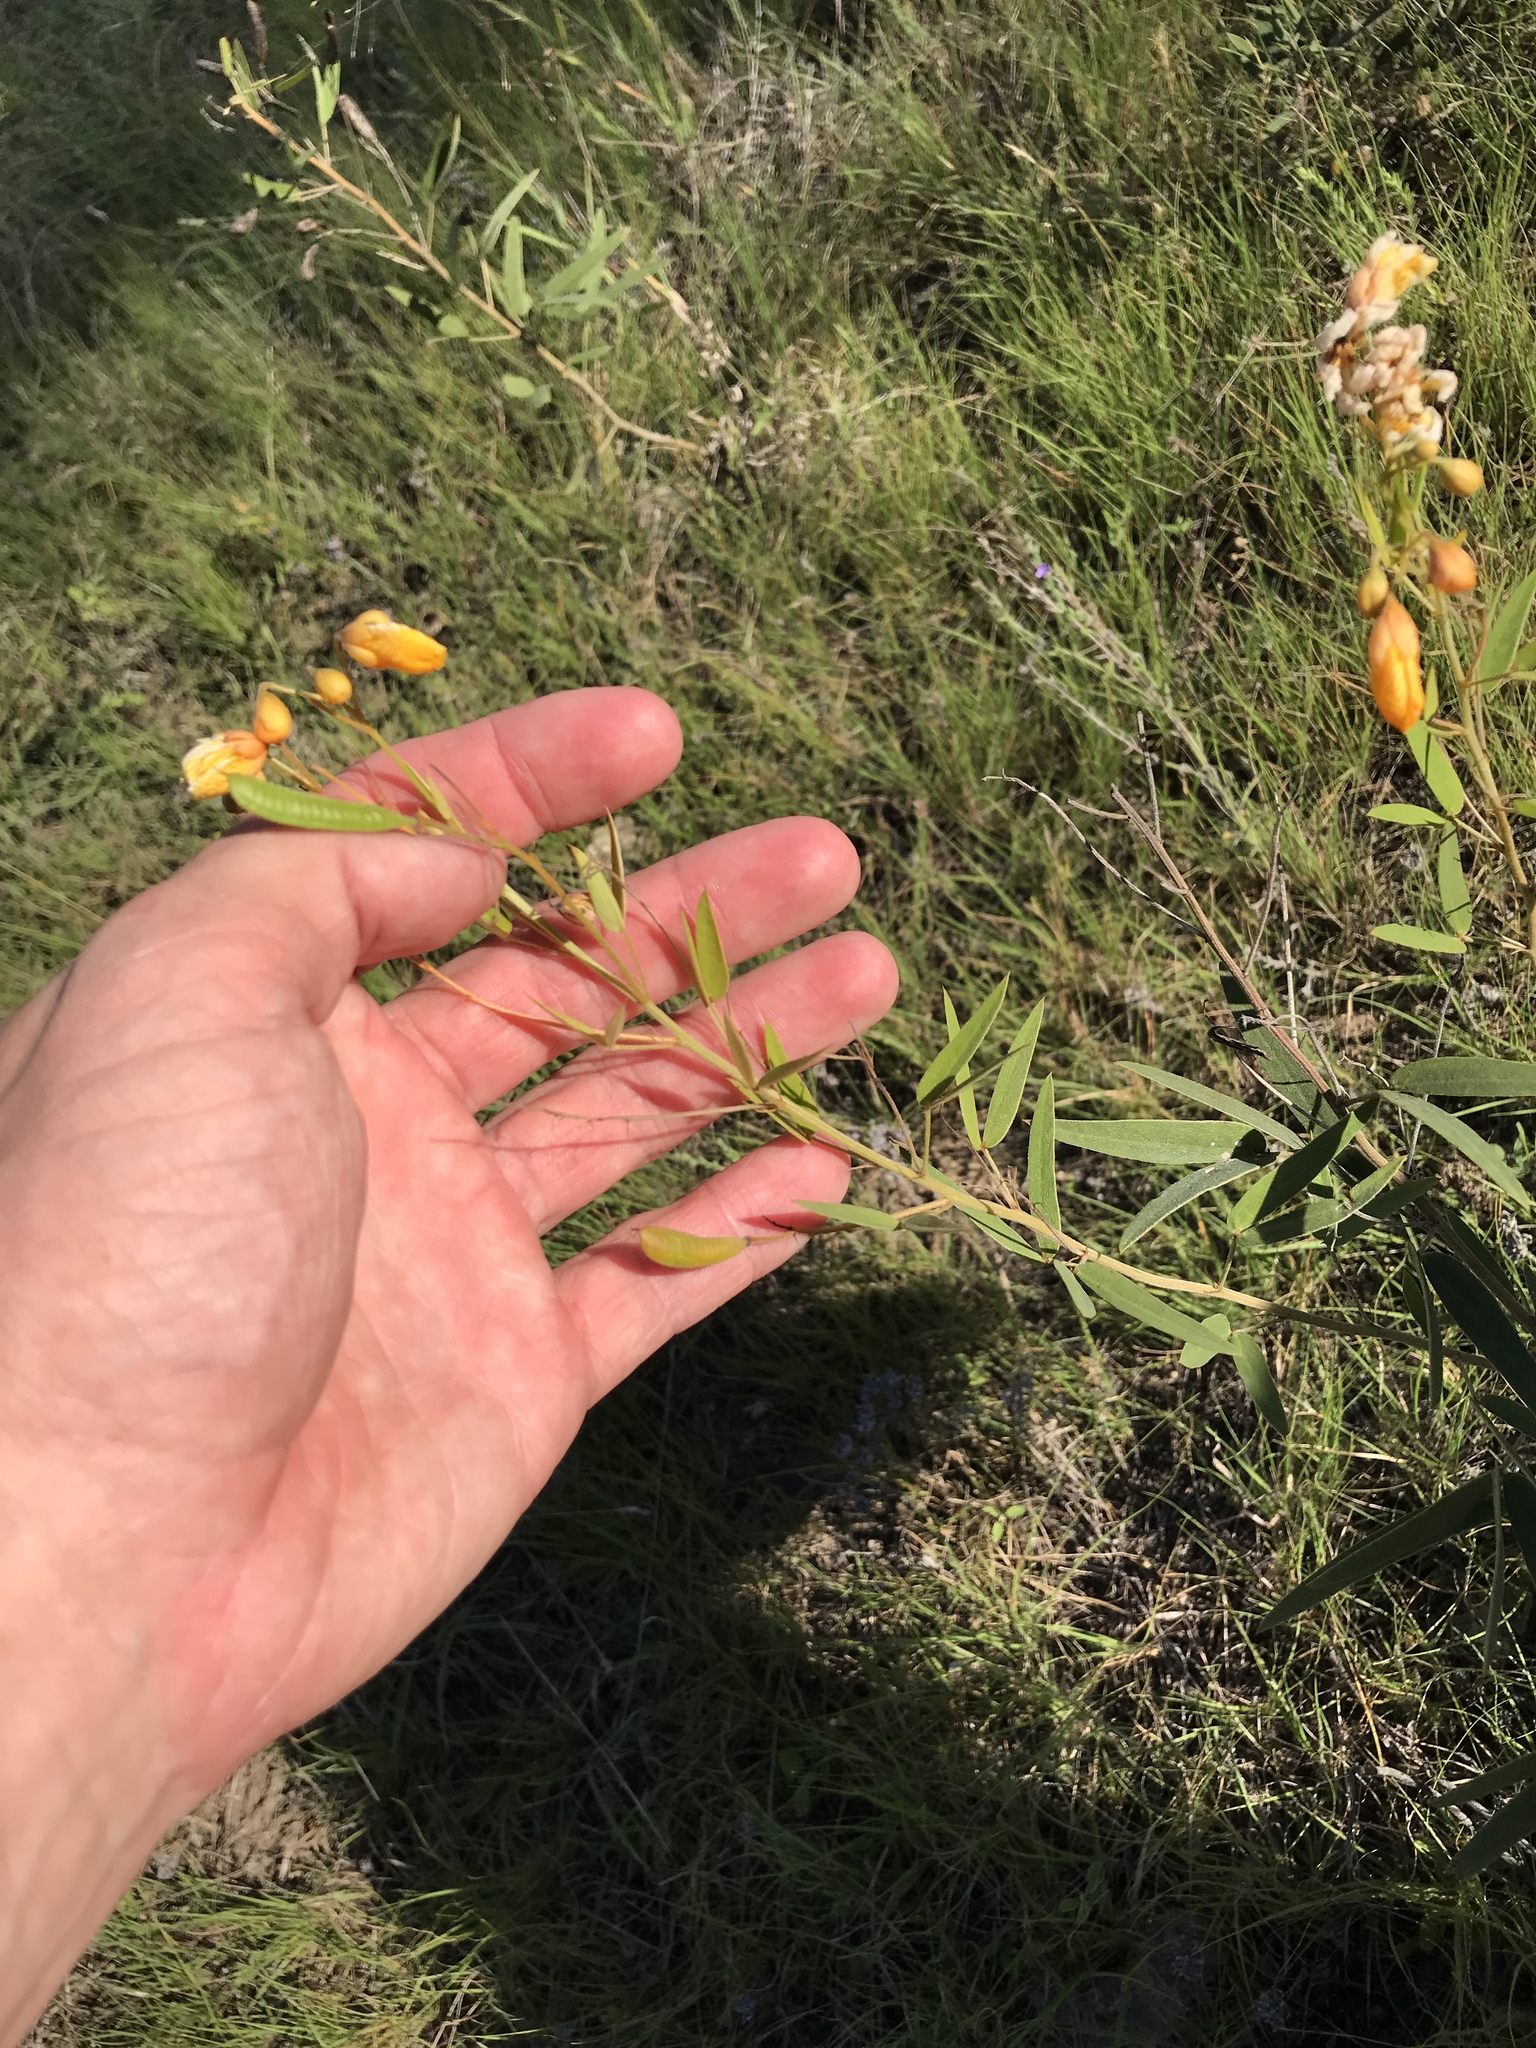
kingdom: Plantae
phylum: Tracheophyta
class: Magnoliopsida
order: Fabales
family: Fabaceae
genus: Senna
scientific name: Senna roemeriana
